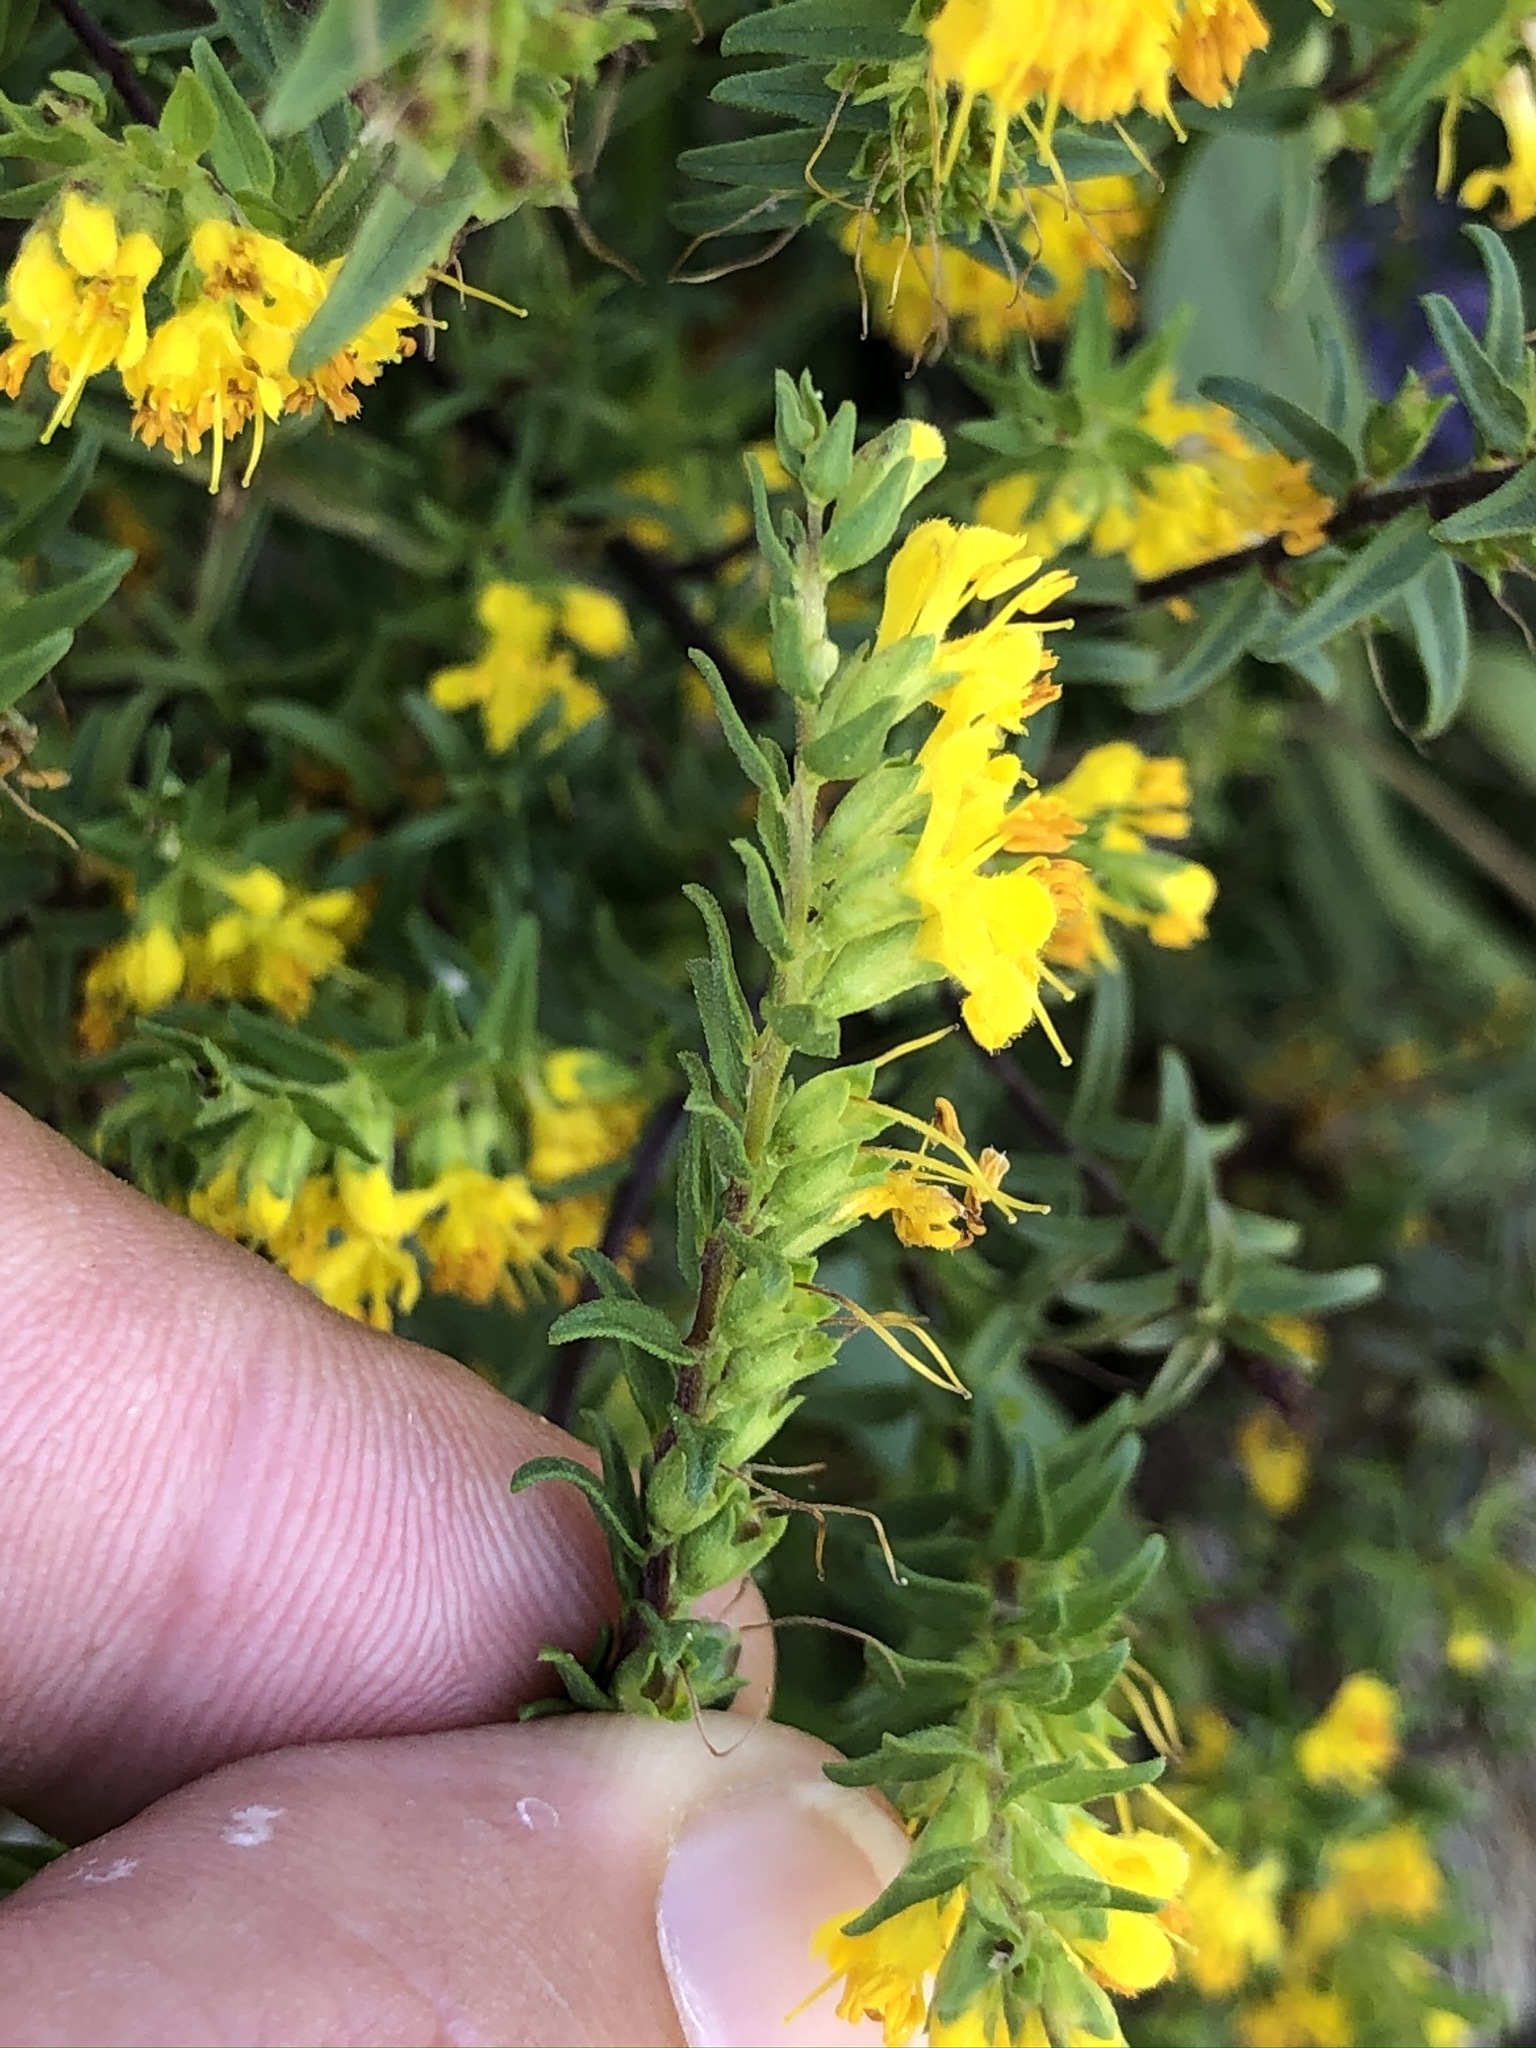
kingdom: Plantae
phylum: Tracheophyta
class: Magnoliopsida
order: Lamiales
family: Orobanchaceae
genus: Odontites
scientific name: Odontites luteus
